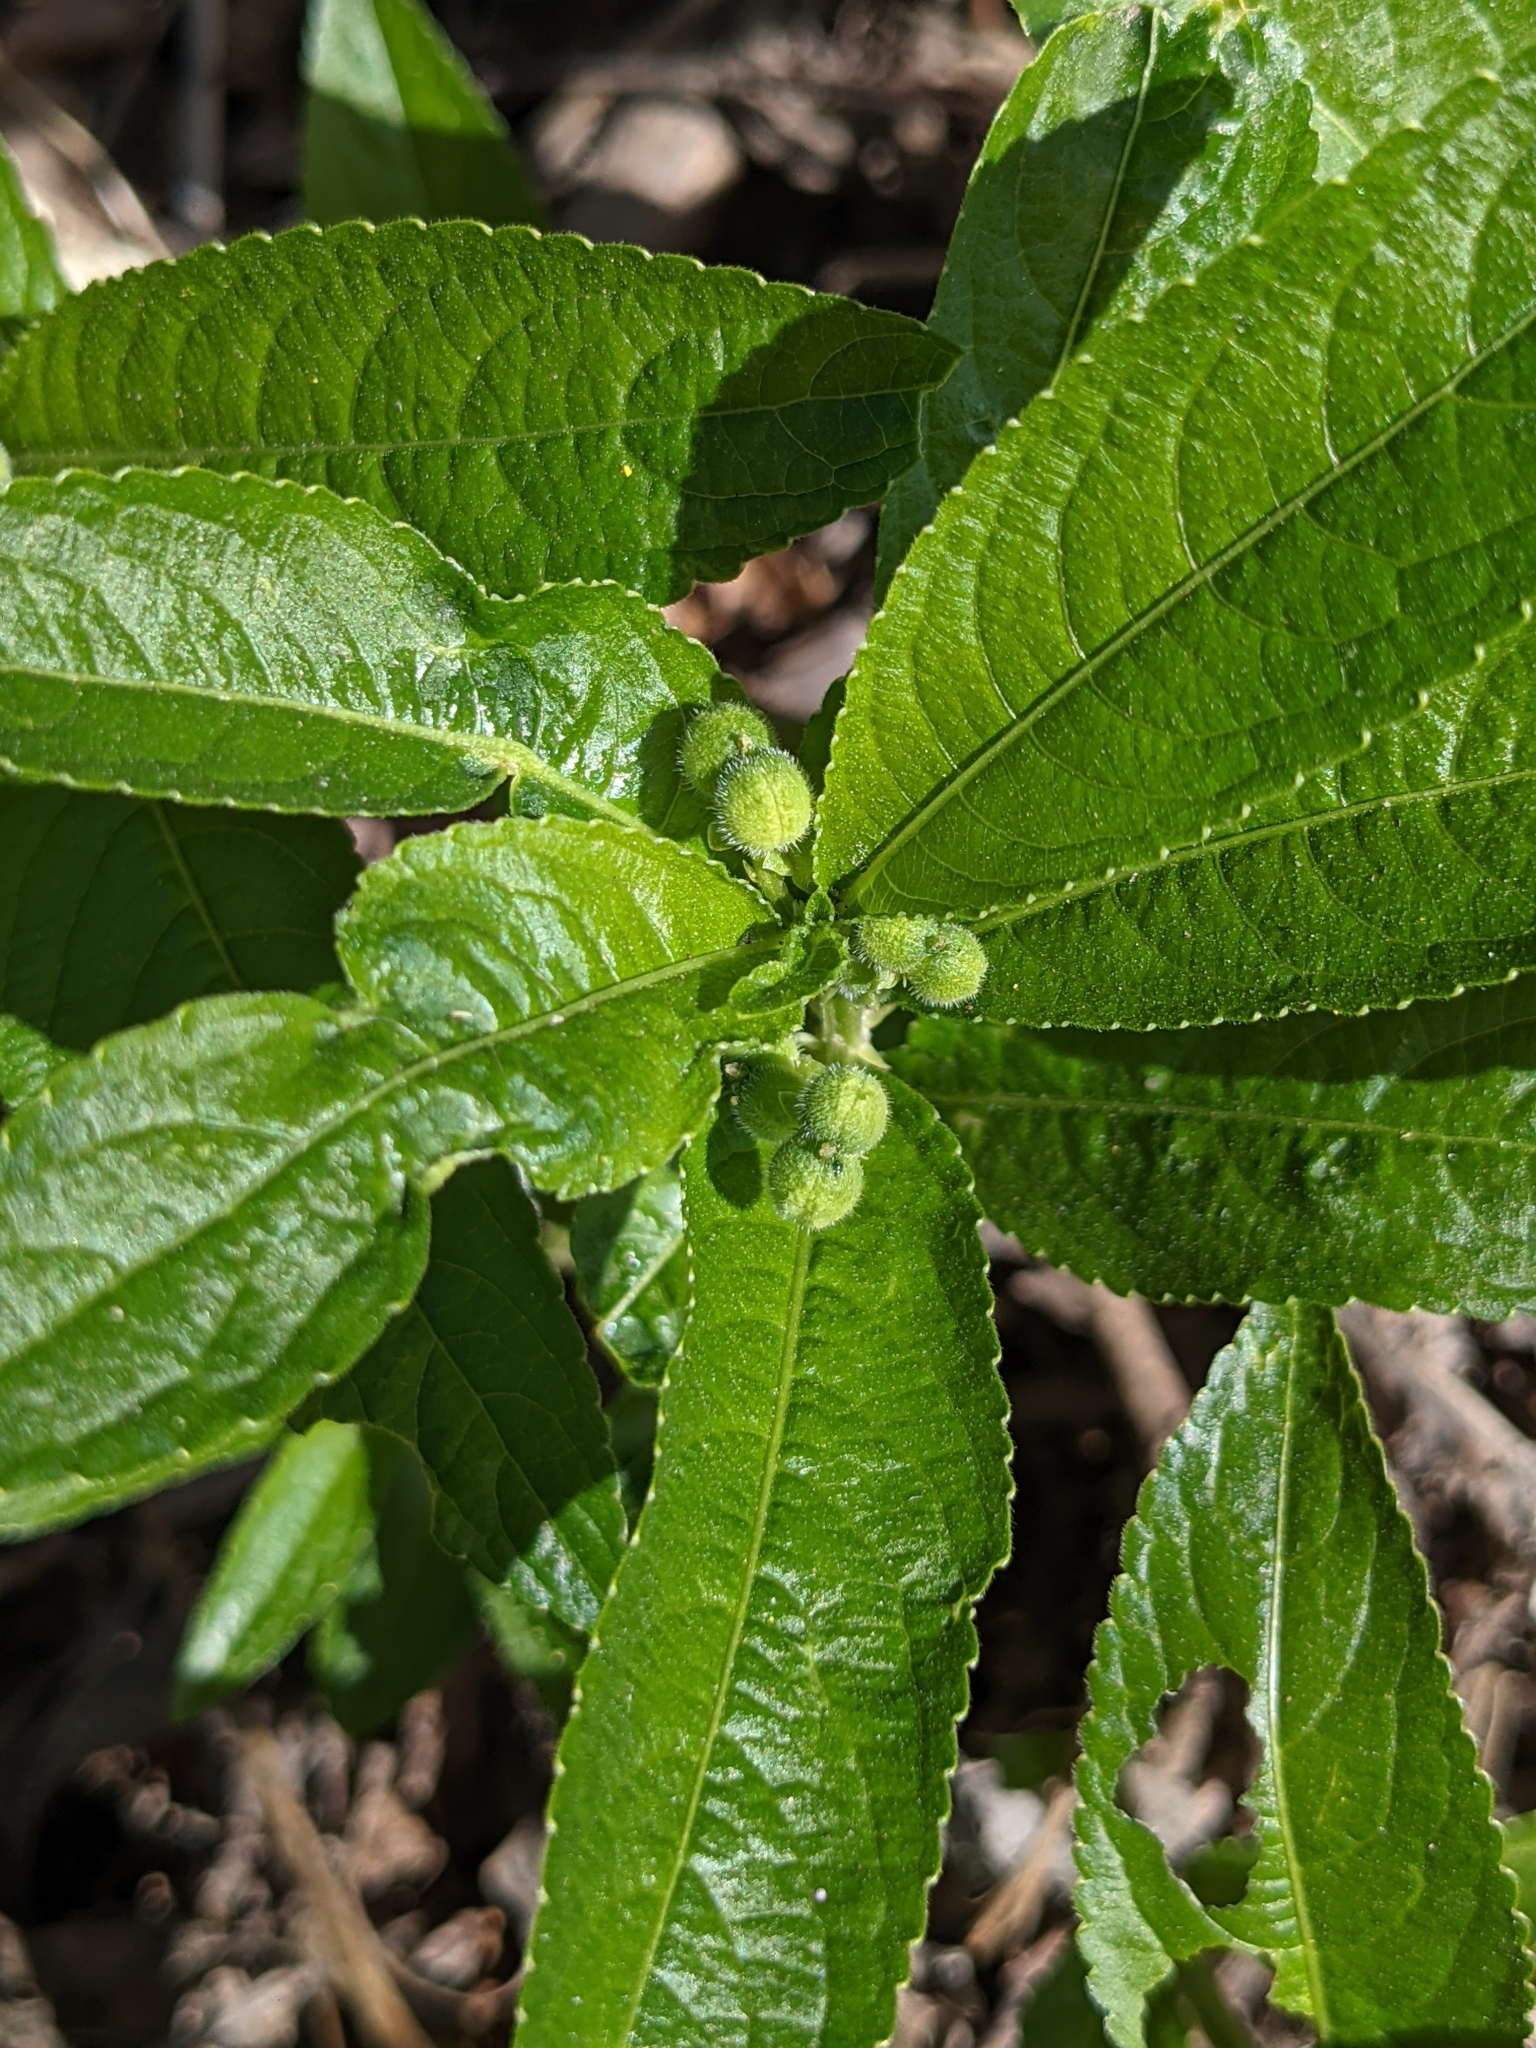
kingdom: Plantae
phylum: Tracheophyta
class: Magnoliopsida
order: Malpighiales
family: Euphorbiaceae
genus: Mercurialis
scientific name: Mercurialis perennis
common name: Dog mercury
